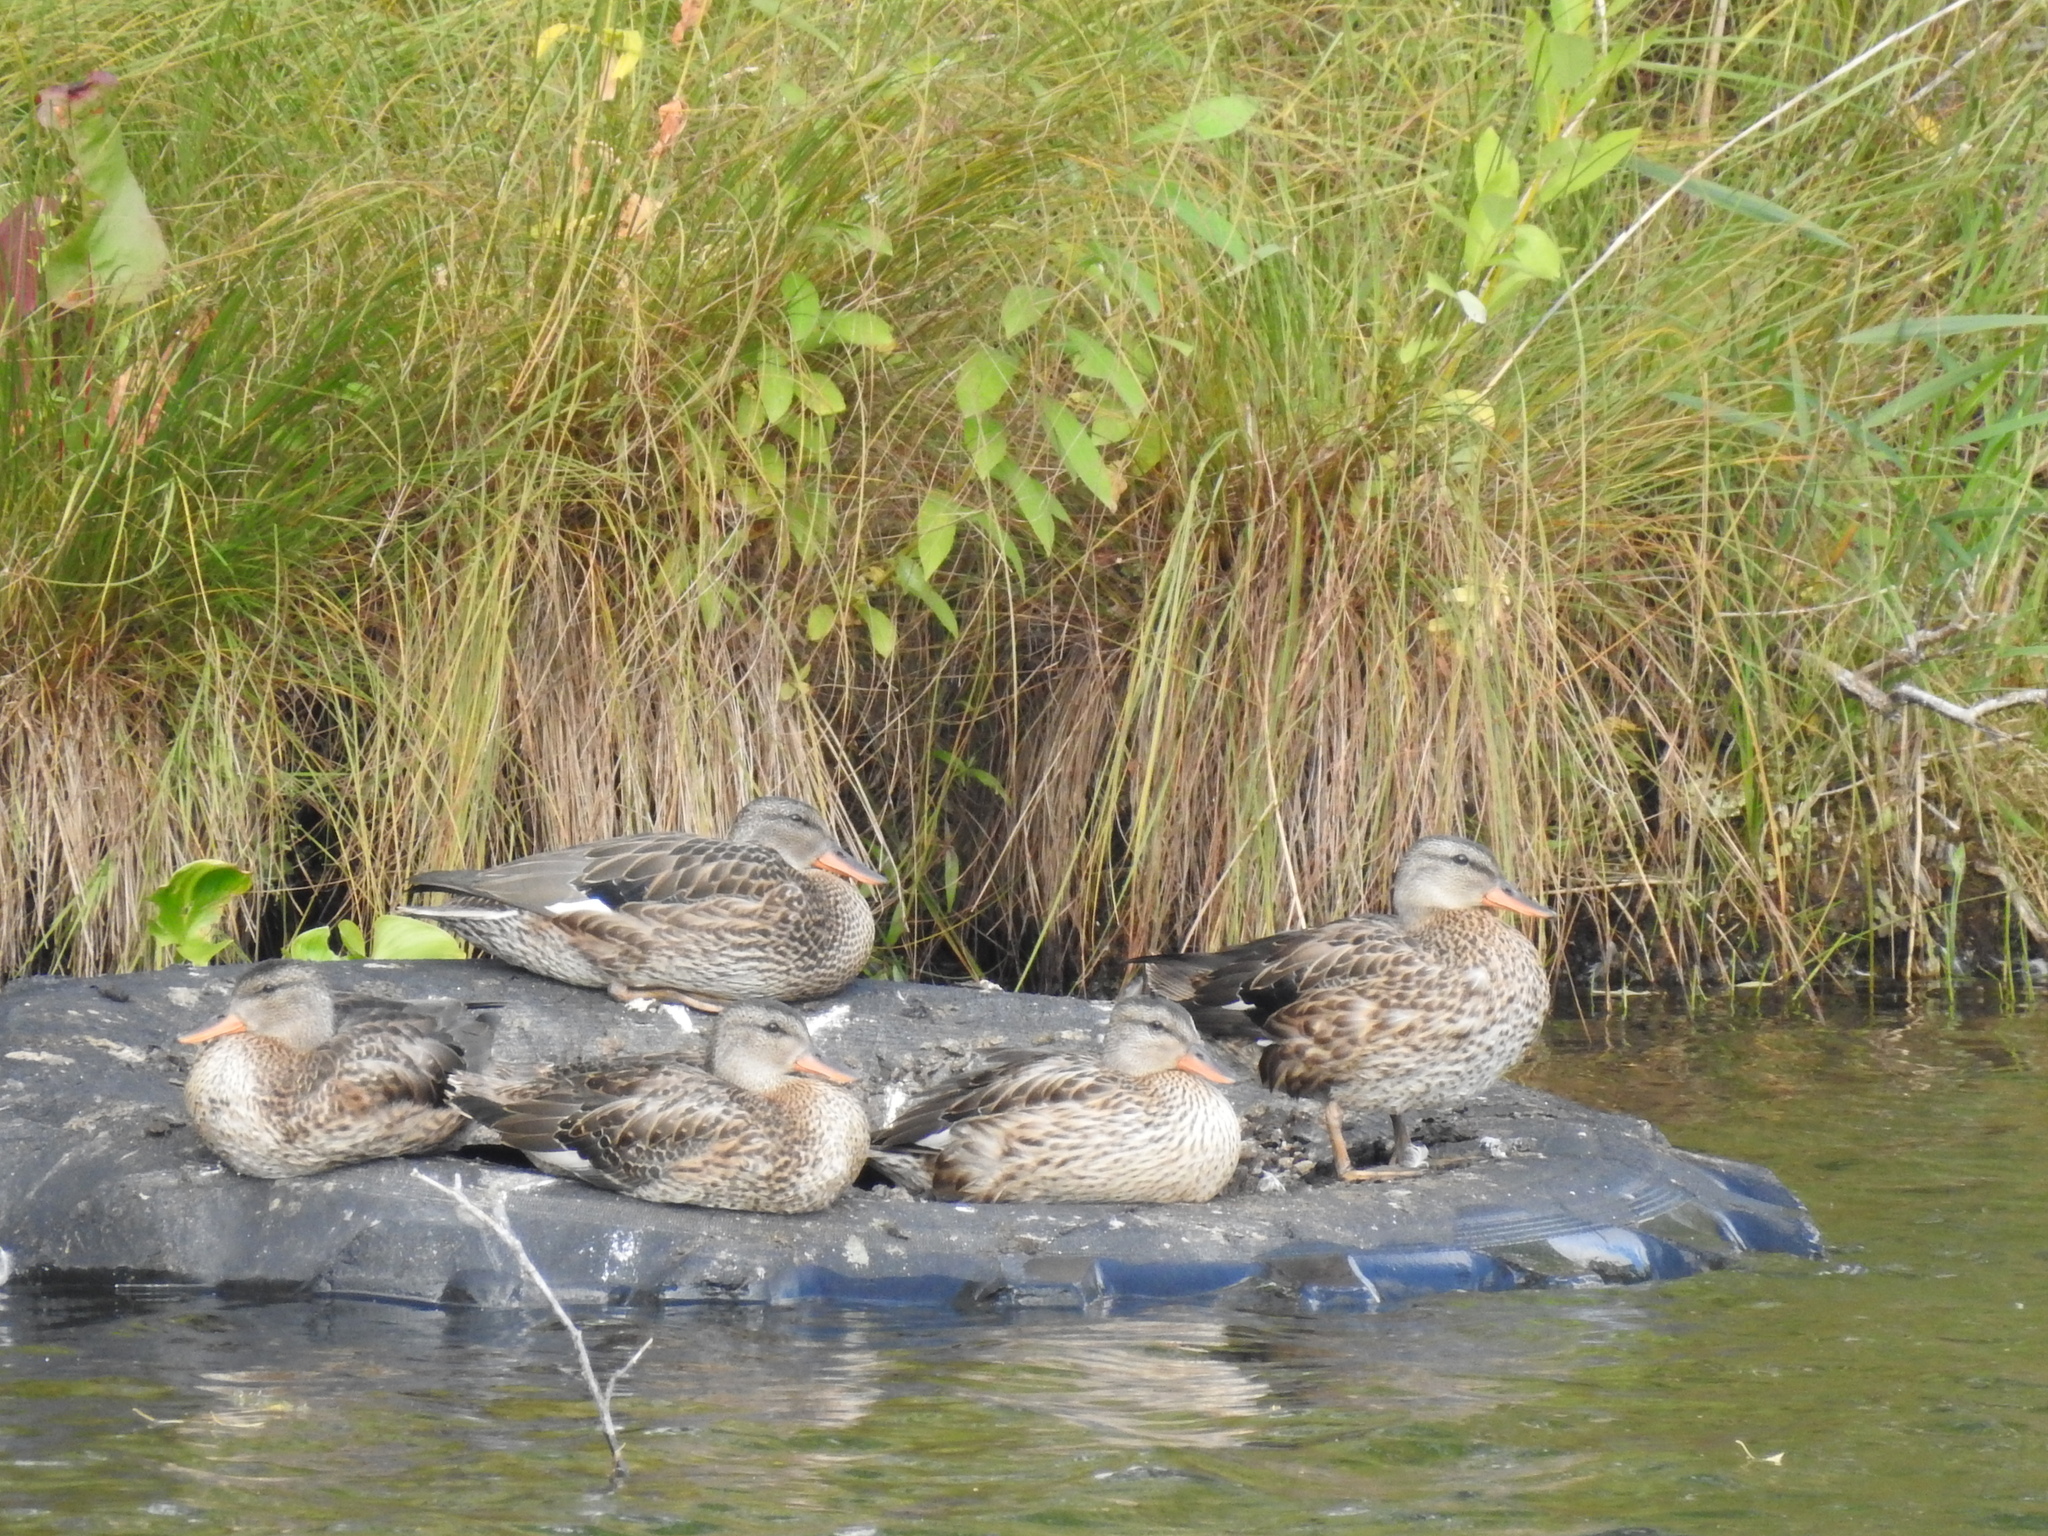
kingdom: Animalia
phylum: Chordata
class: Aves
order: Anseriformes
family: Anatidae
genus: Mareca
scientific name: Mareca strepera
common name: Gadwall
